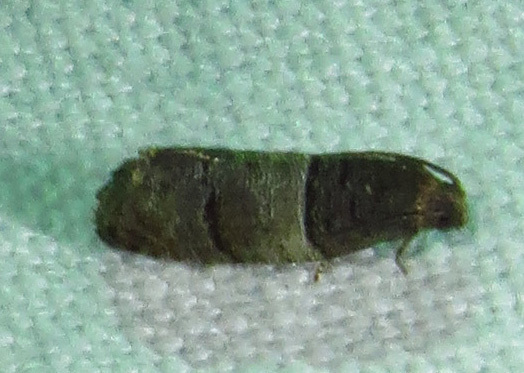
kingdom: Animalia
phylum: Arthropoda
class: Insecta
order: Lepidoptera
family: Tortricidae
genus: Larisa
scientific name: Larisa subsolana
